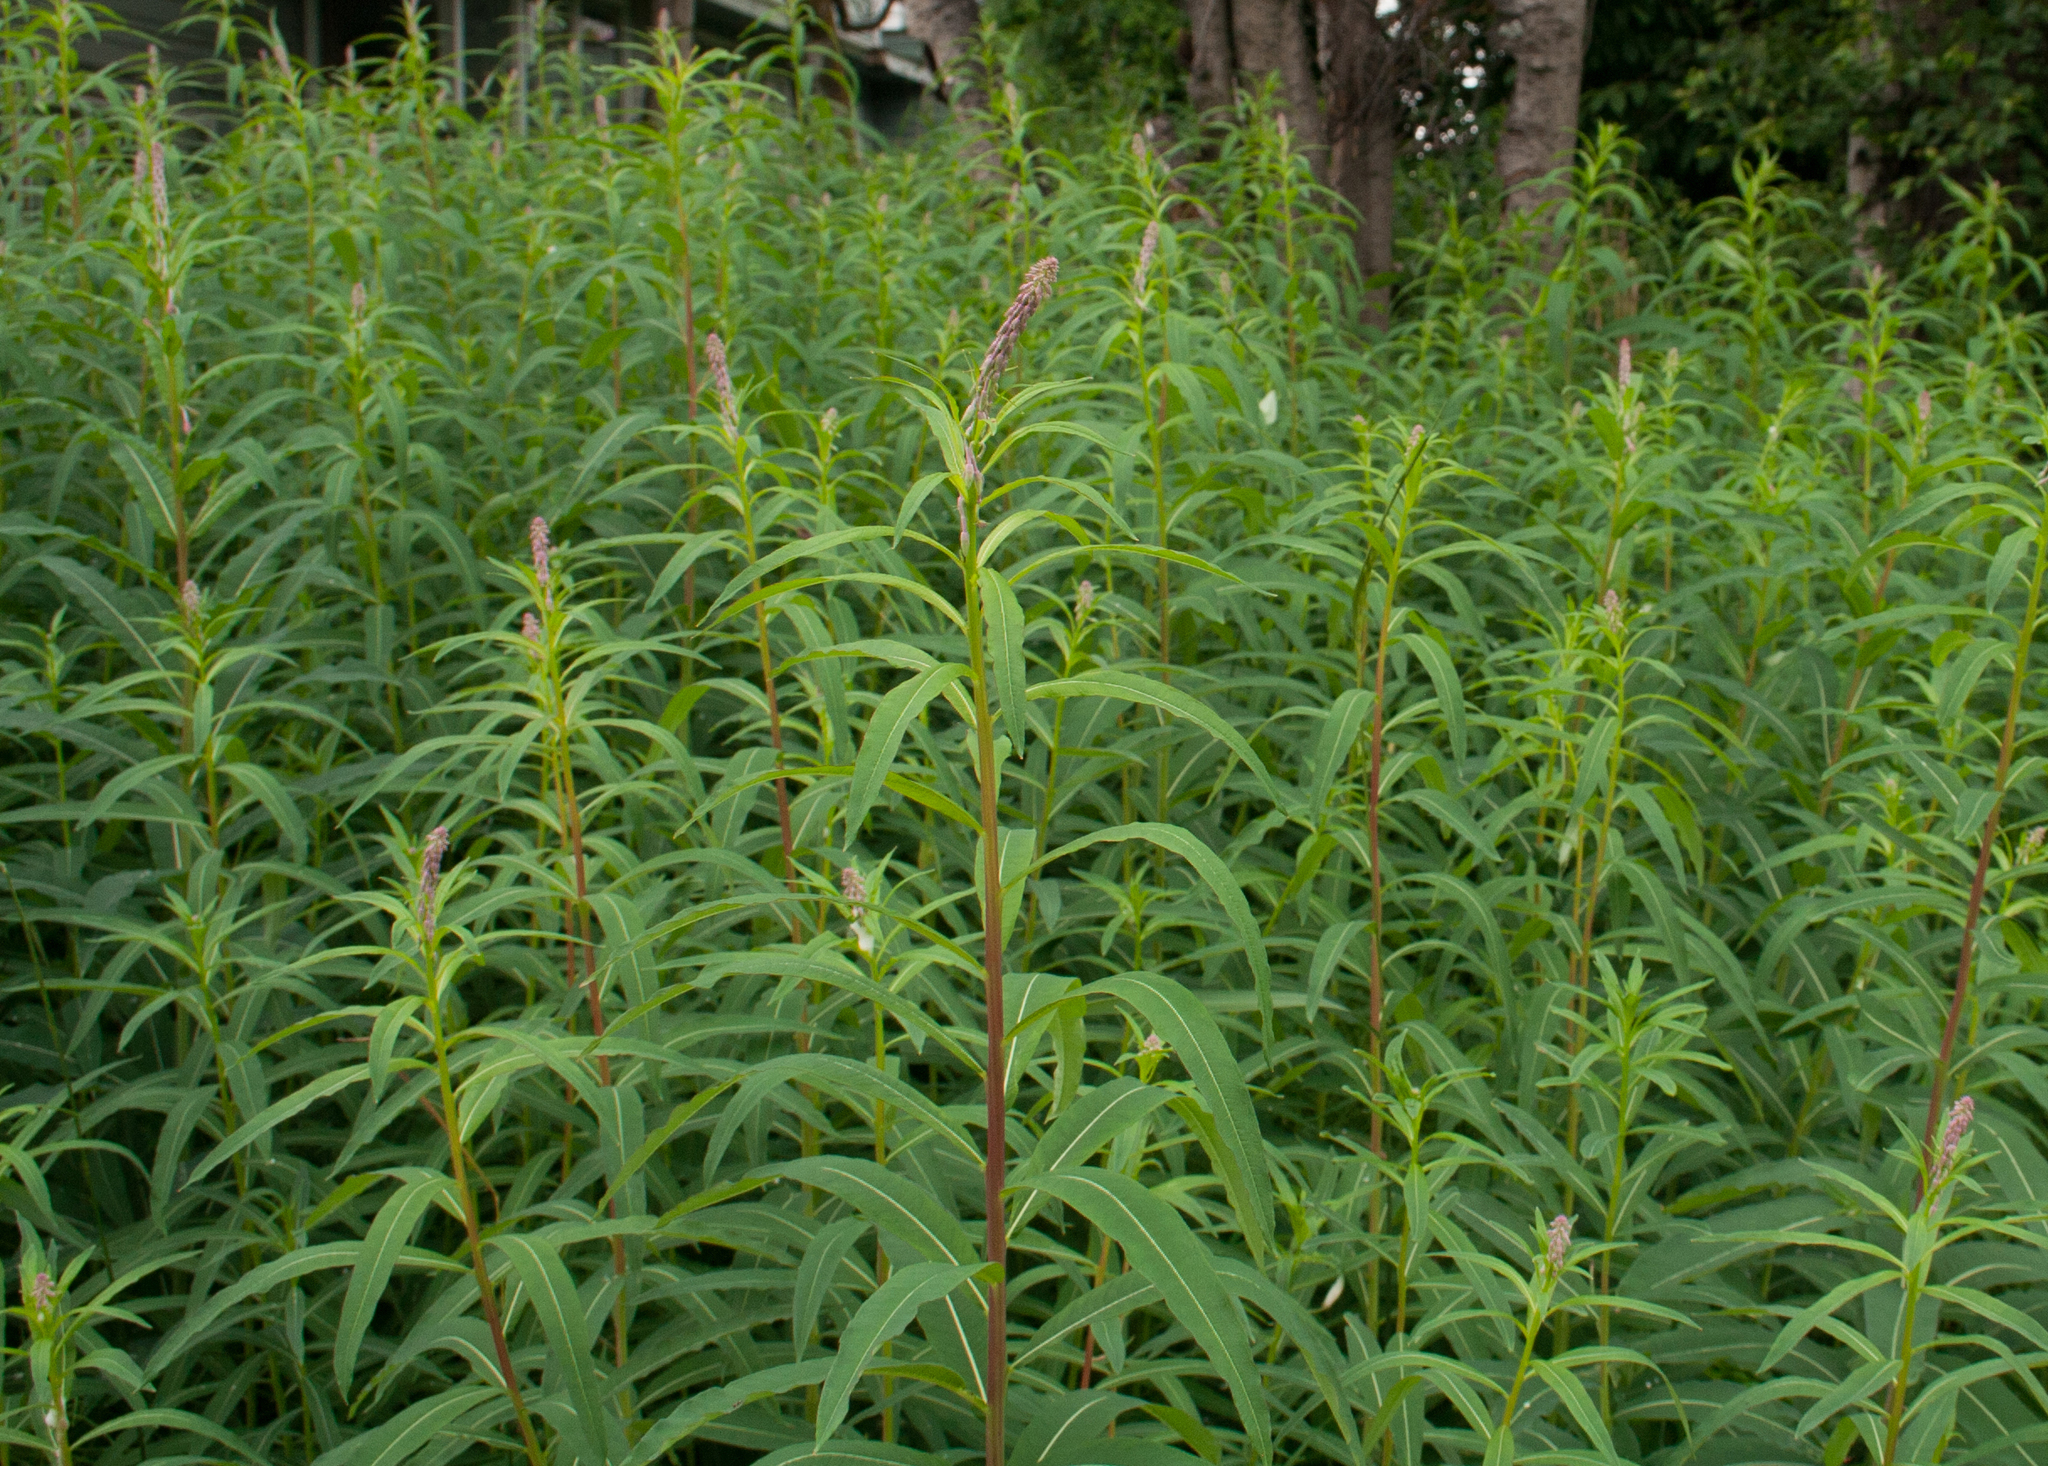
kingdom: Plantae
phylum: Tracheophyta
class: Magnoliopsida
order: Myrtales
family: Onagraceae
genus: Chamaenerion
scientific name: Chamaenerion angustifolium
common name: Fireweed
